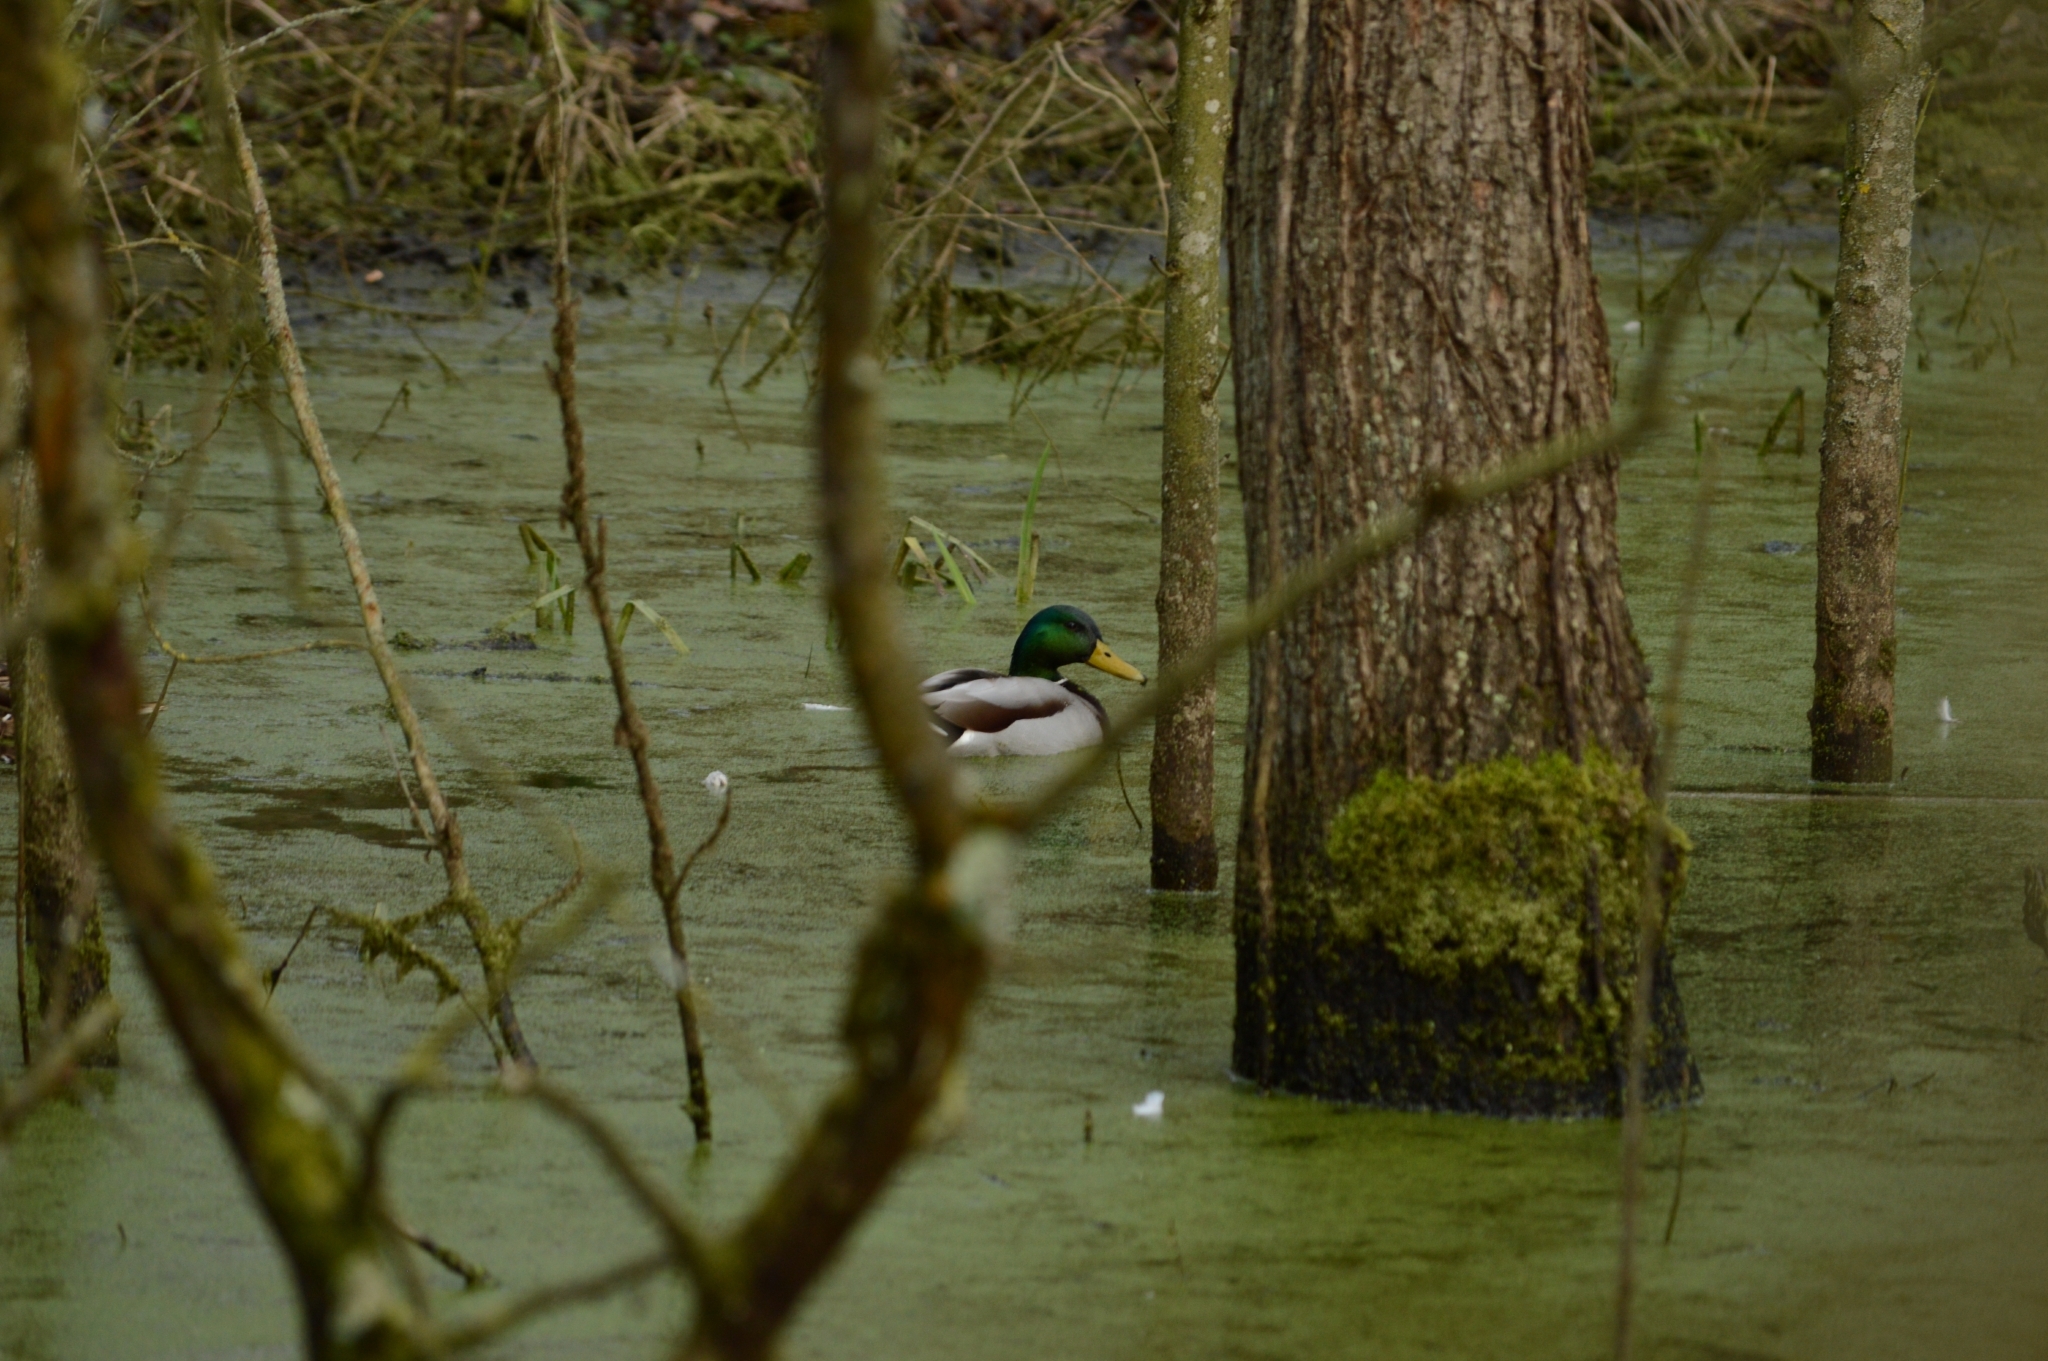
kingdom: Animalia
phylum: Chordata
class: Aves
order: Anseriformes
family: Anatidae
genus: Anas
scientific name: Anas platyrhynchos
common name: Mallard
